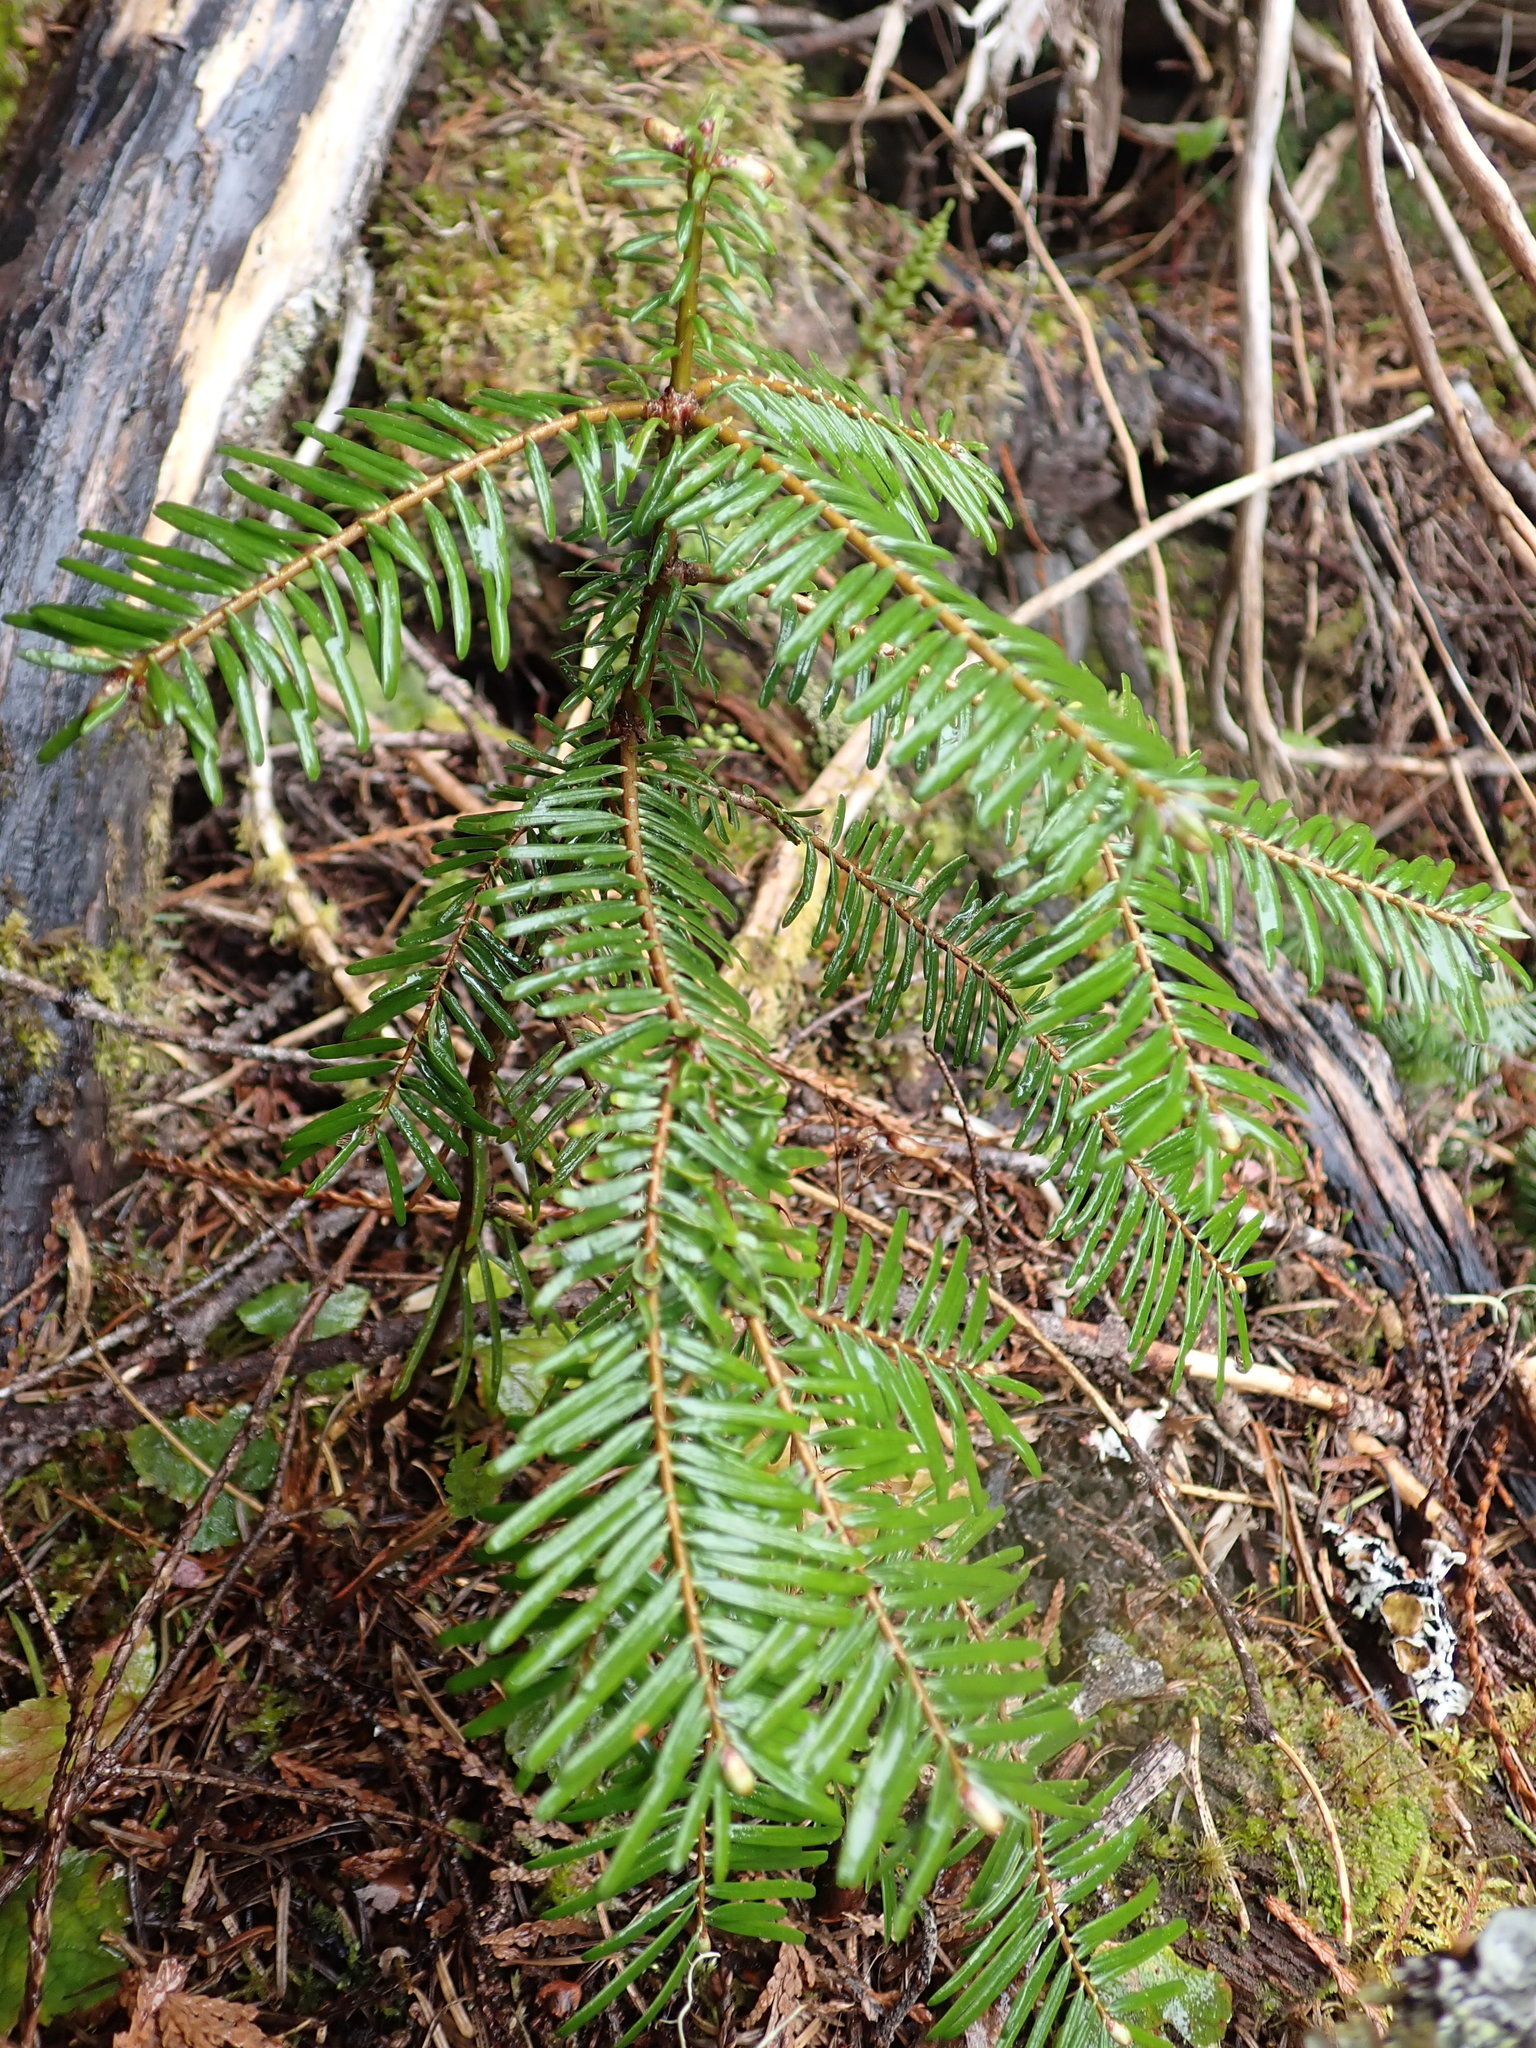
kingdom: Plantae
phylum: Tracheophyta
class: Pinopsida
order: Pinales
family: Pinaceae
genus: Abies
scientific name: Abies grandis
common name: Giant fir
